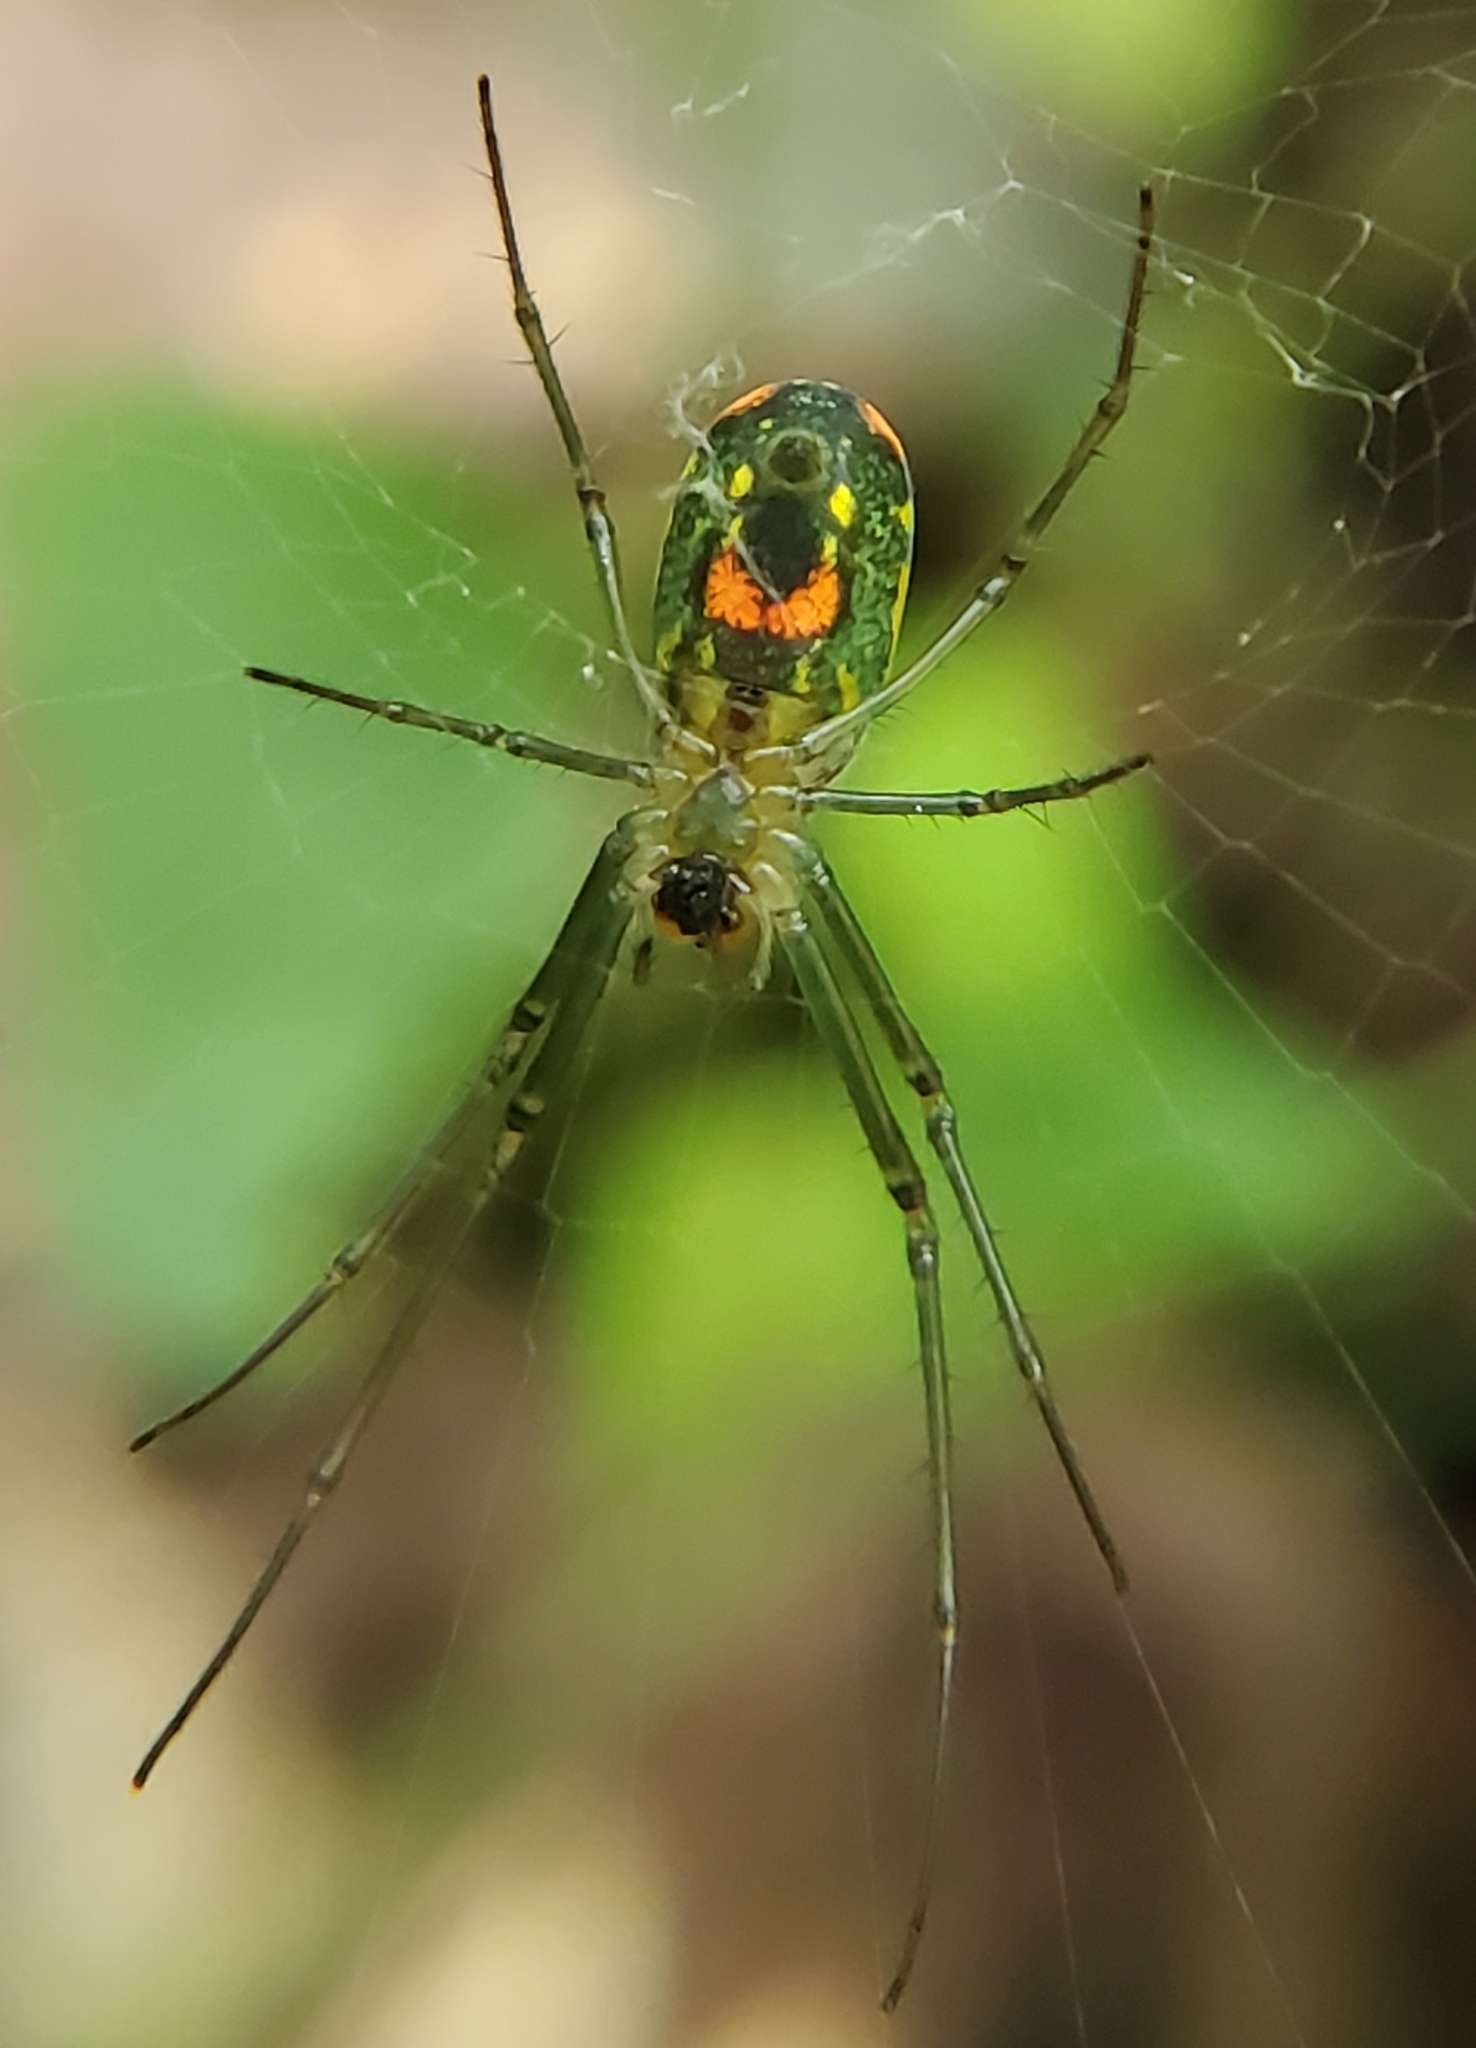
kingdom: Animalia
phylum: Arthropoda
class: Arachnida
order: Araneae
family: Tetragnathidae
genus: Leucauge
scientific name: Leucauge argyrobapta
